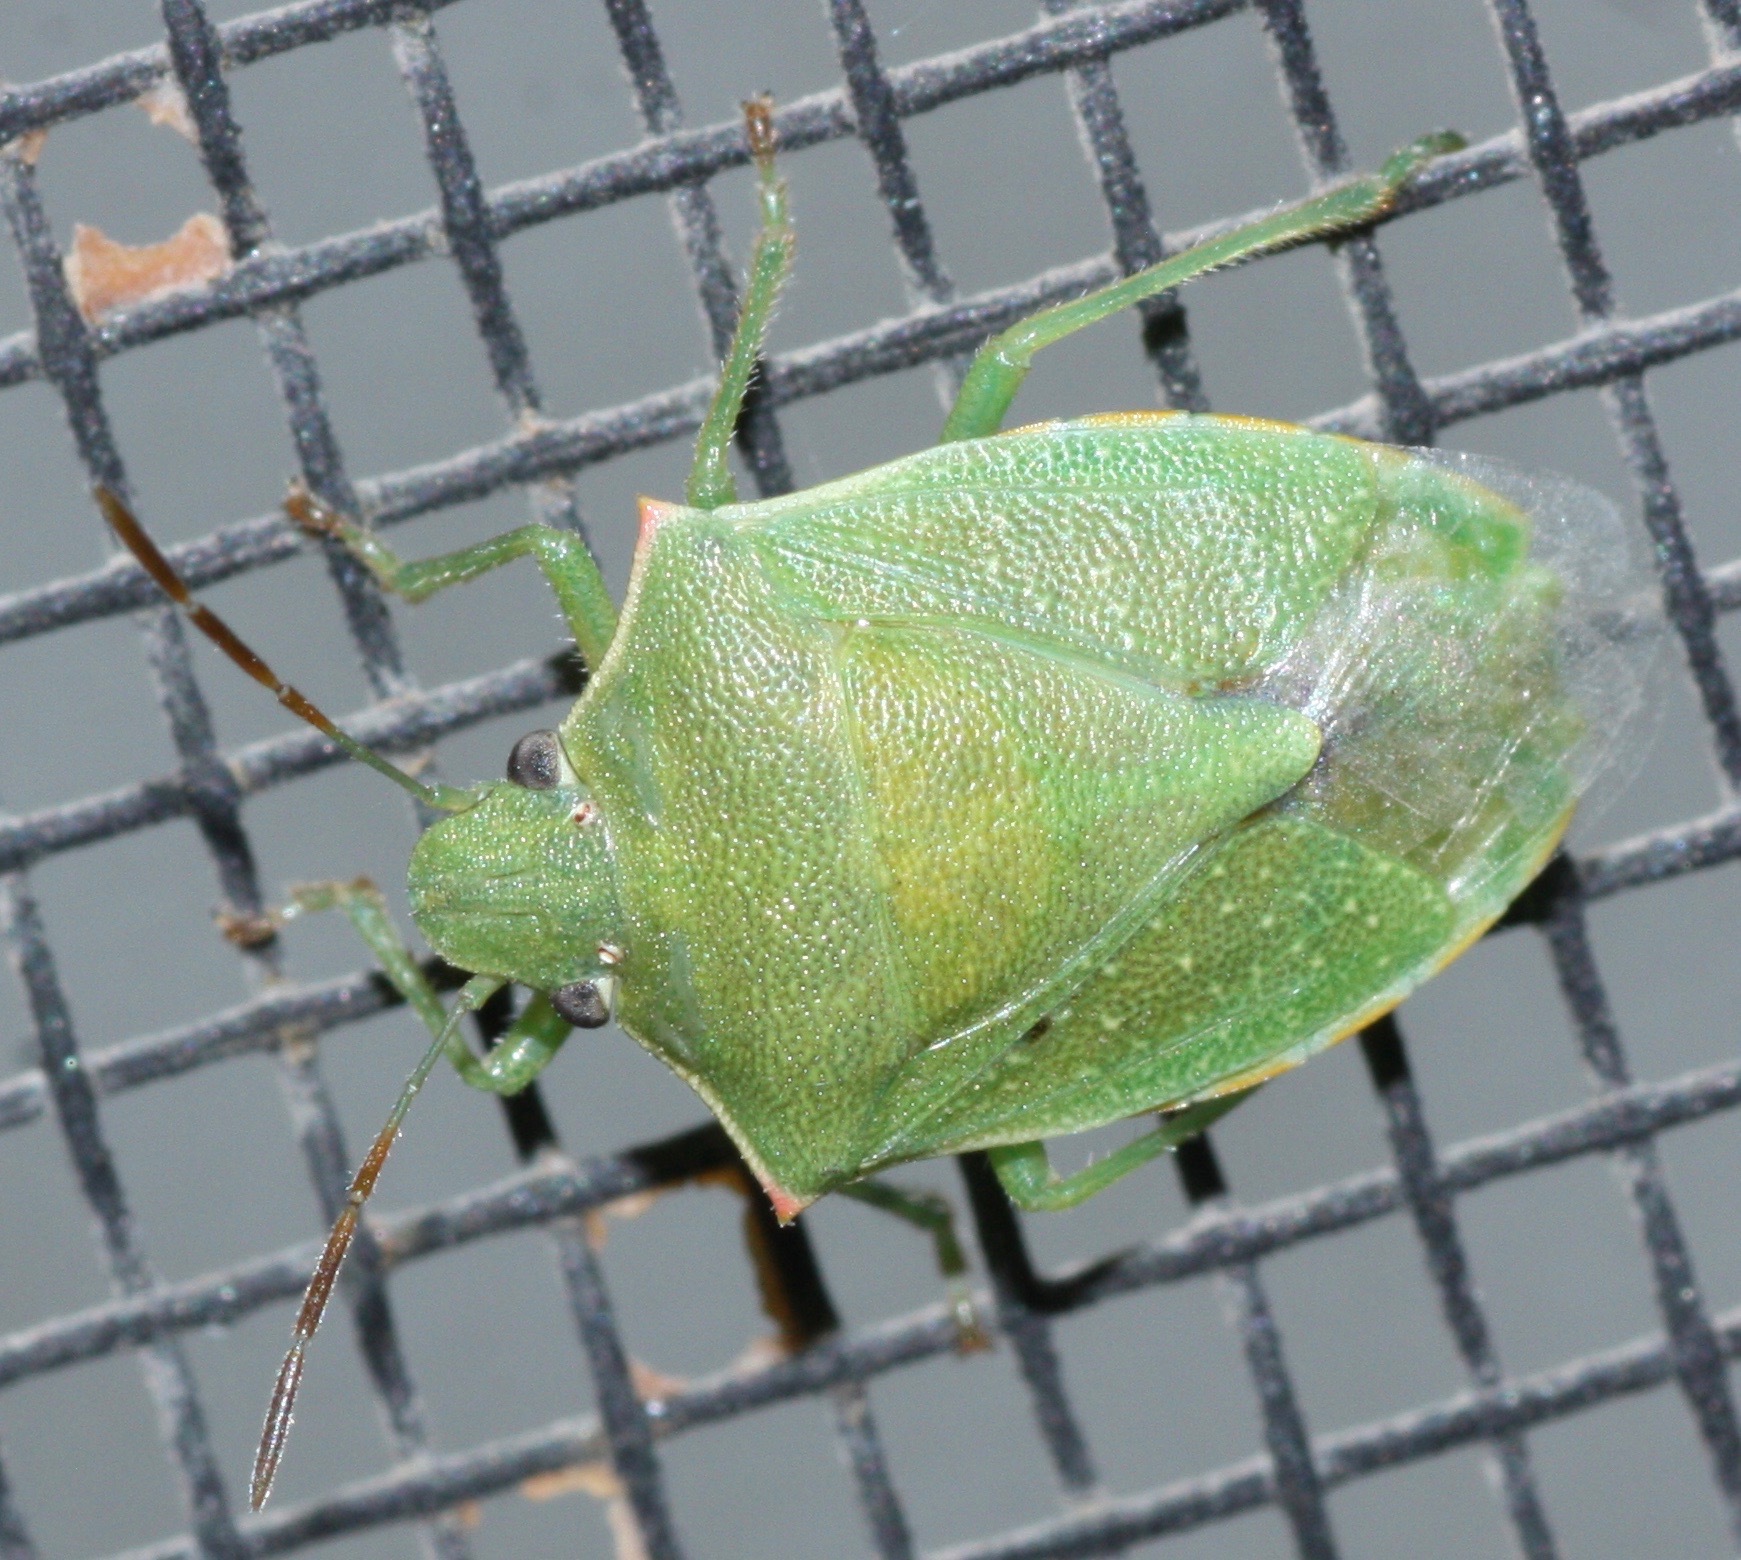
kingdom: Animalia
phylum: Arthropoda
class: Insecta
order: Hemiptera
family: Pentatomidae
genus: Thyanta
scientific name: Thyanta accerra
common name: Stink bug
